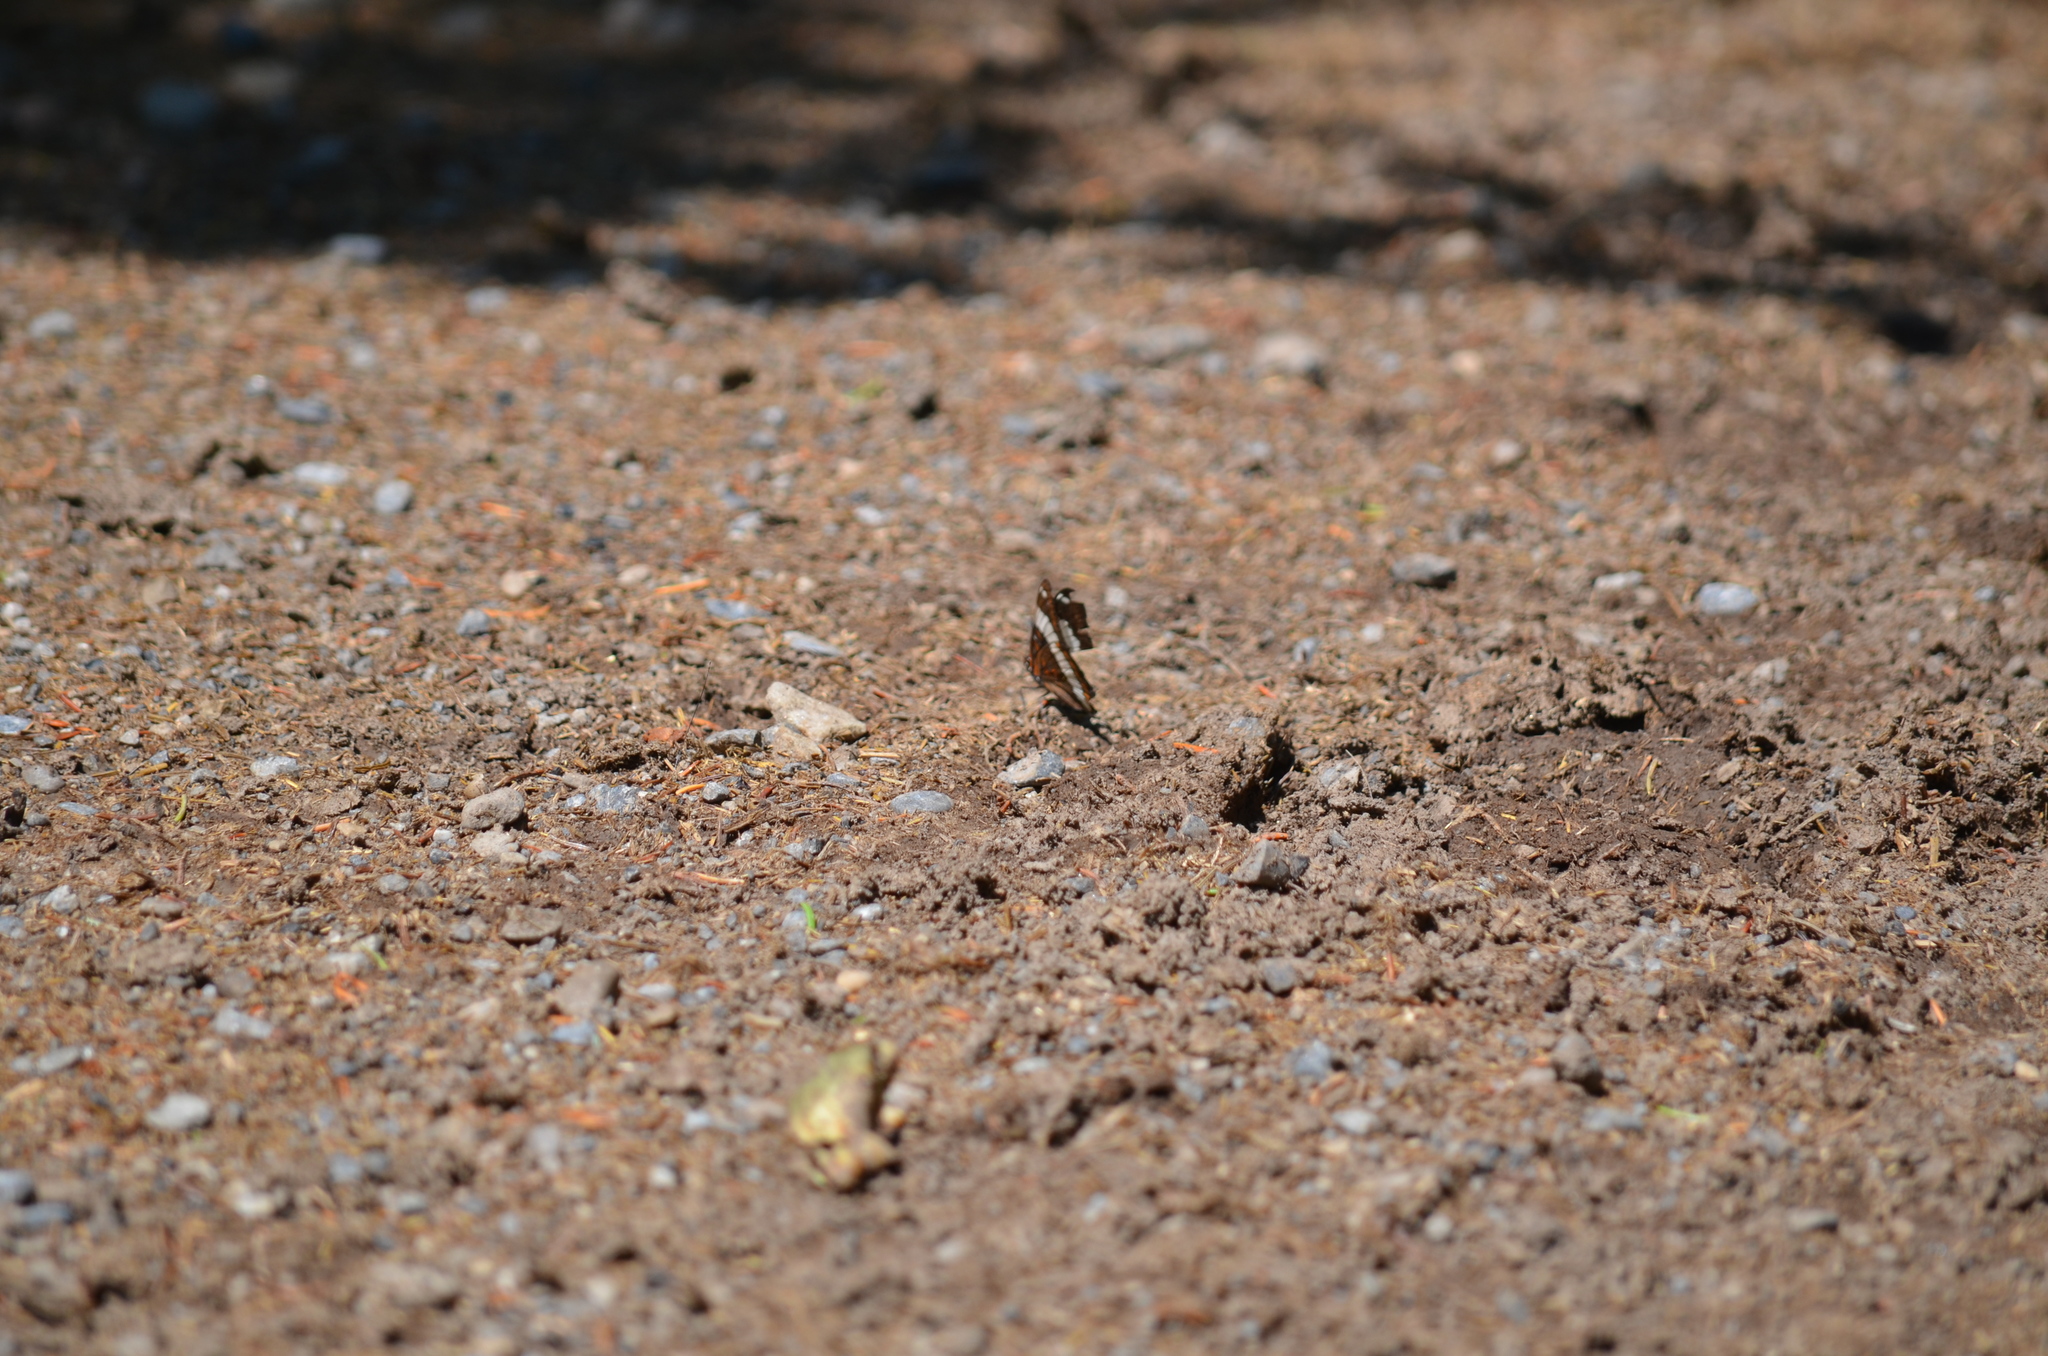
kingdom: Animalia
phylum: Arthropoda
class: Insecta
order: Lepidoptera
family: Nymphalidae
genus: Limenitis
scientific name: Limenitis arthemis
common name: Red-spotted admiral
